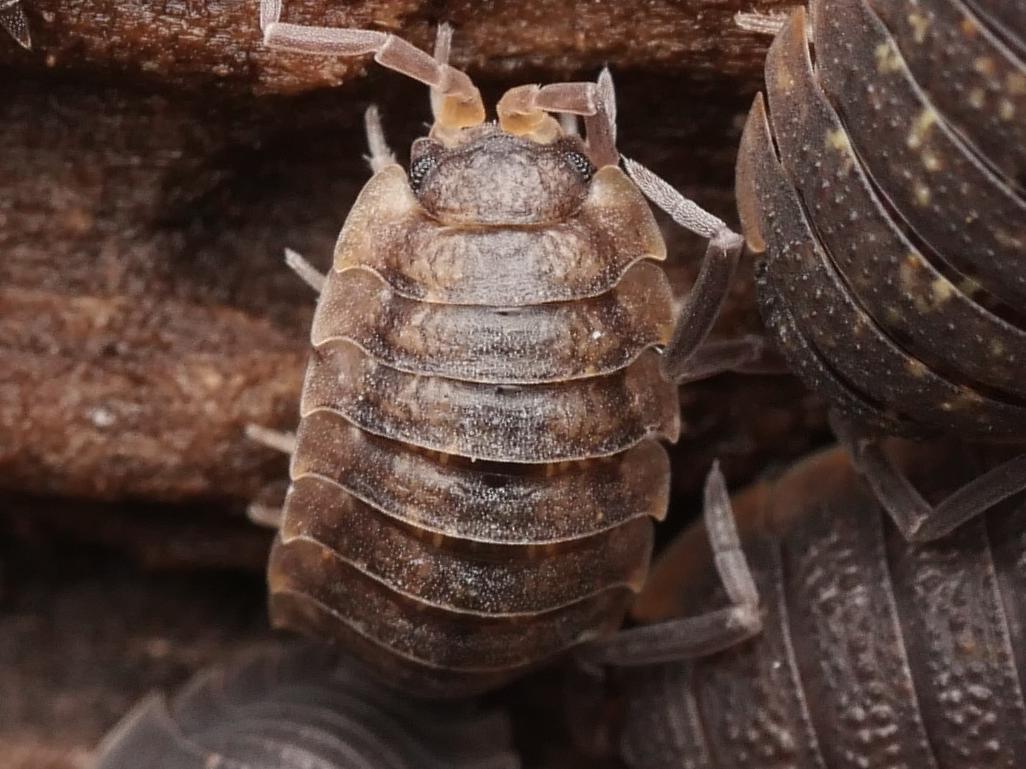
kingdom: Animalia
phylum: Arthropoda
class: Malacostraca
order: Isopoda
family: Porcellionidae
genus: Porcellio
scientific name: Porcellio scaber
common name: Common rough woodlouse
